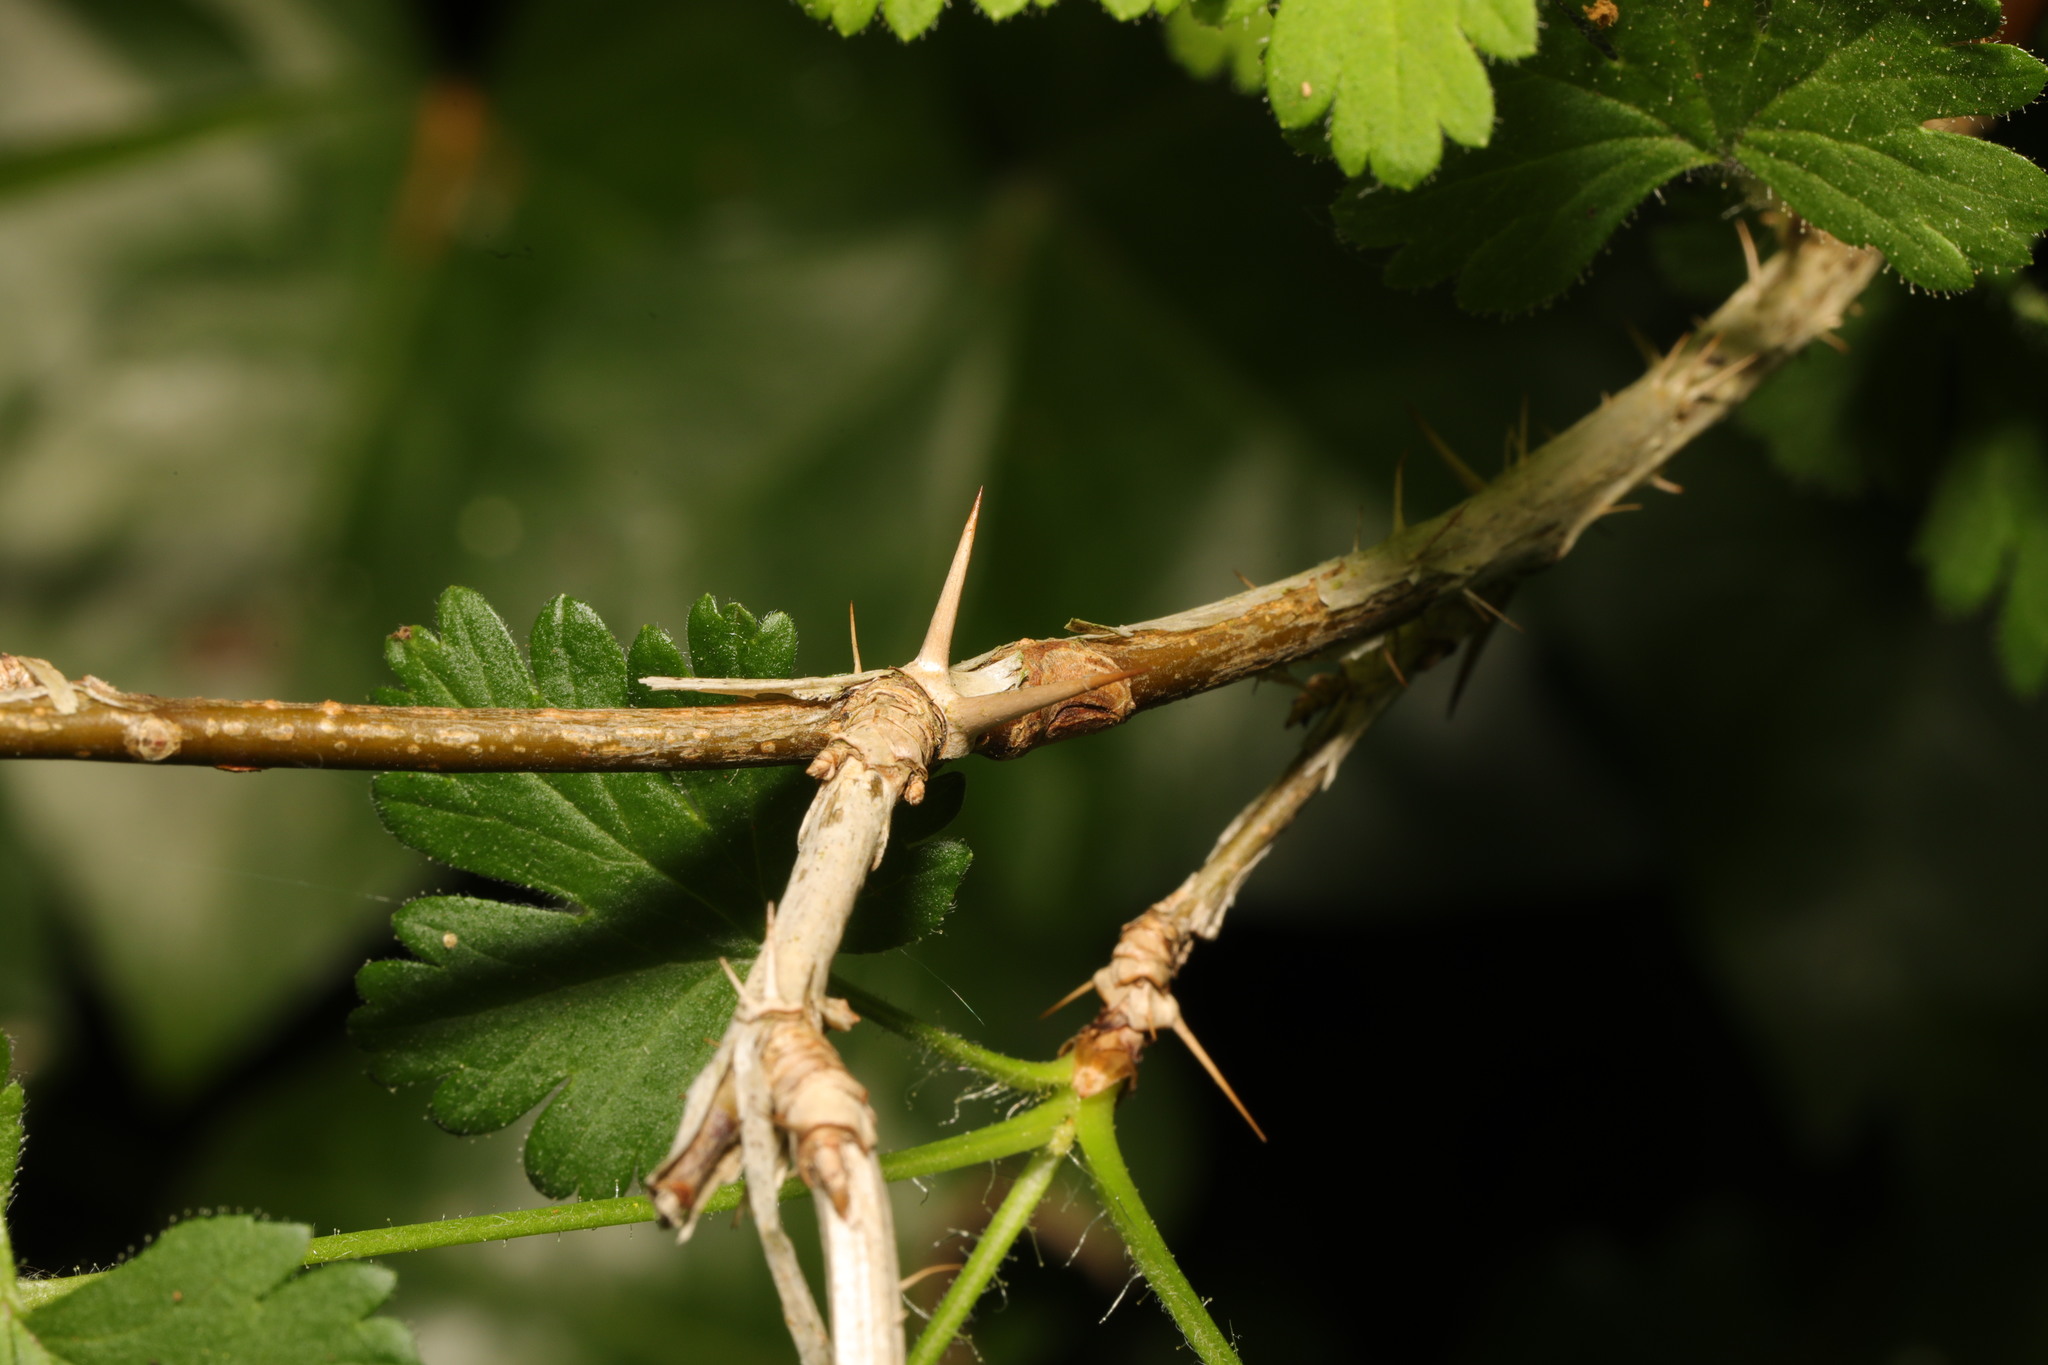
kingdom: Plantae
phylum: Tracheophyta
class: Magnoliopsida
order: Saxifragales
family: Grossulariaceae
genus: Ribes
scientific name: Ribes uva-crispa
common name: Gooseberry
